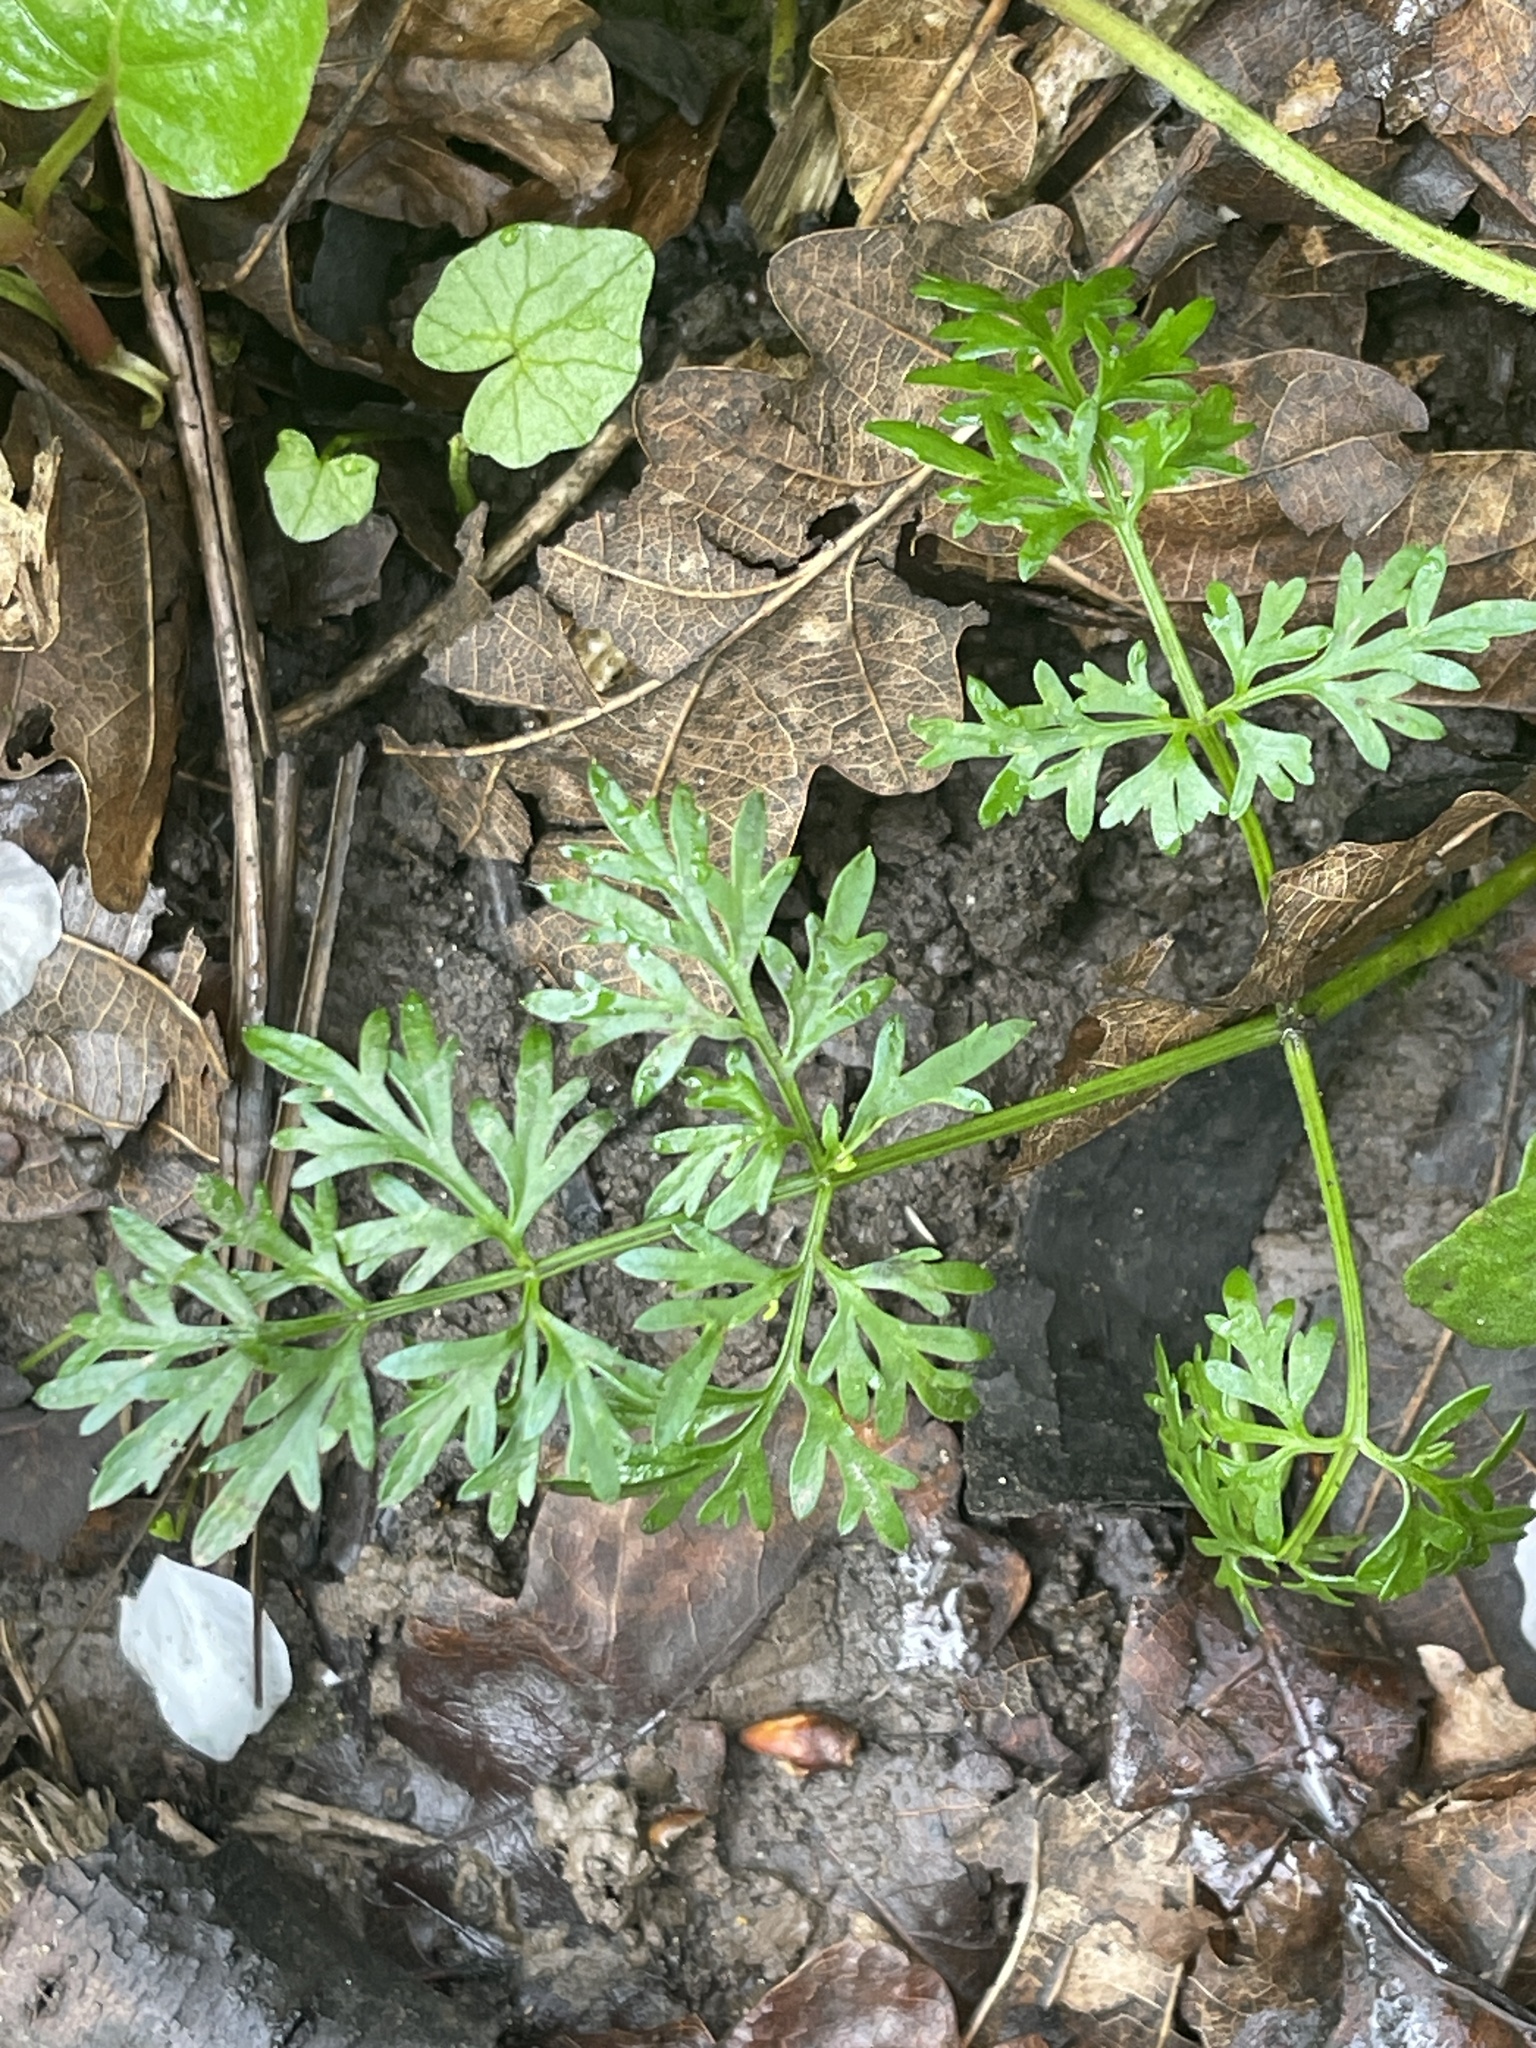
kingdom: Plantae
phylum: Tracheophyta
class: Magnoliopsida
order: Apiales
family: Apiaceae
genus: Conopodium
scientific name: Conopodium majus
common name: Pignut
